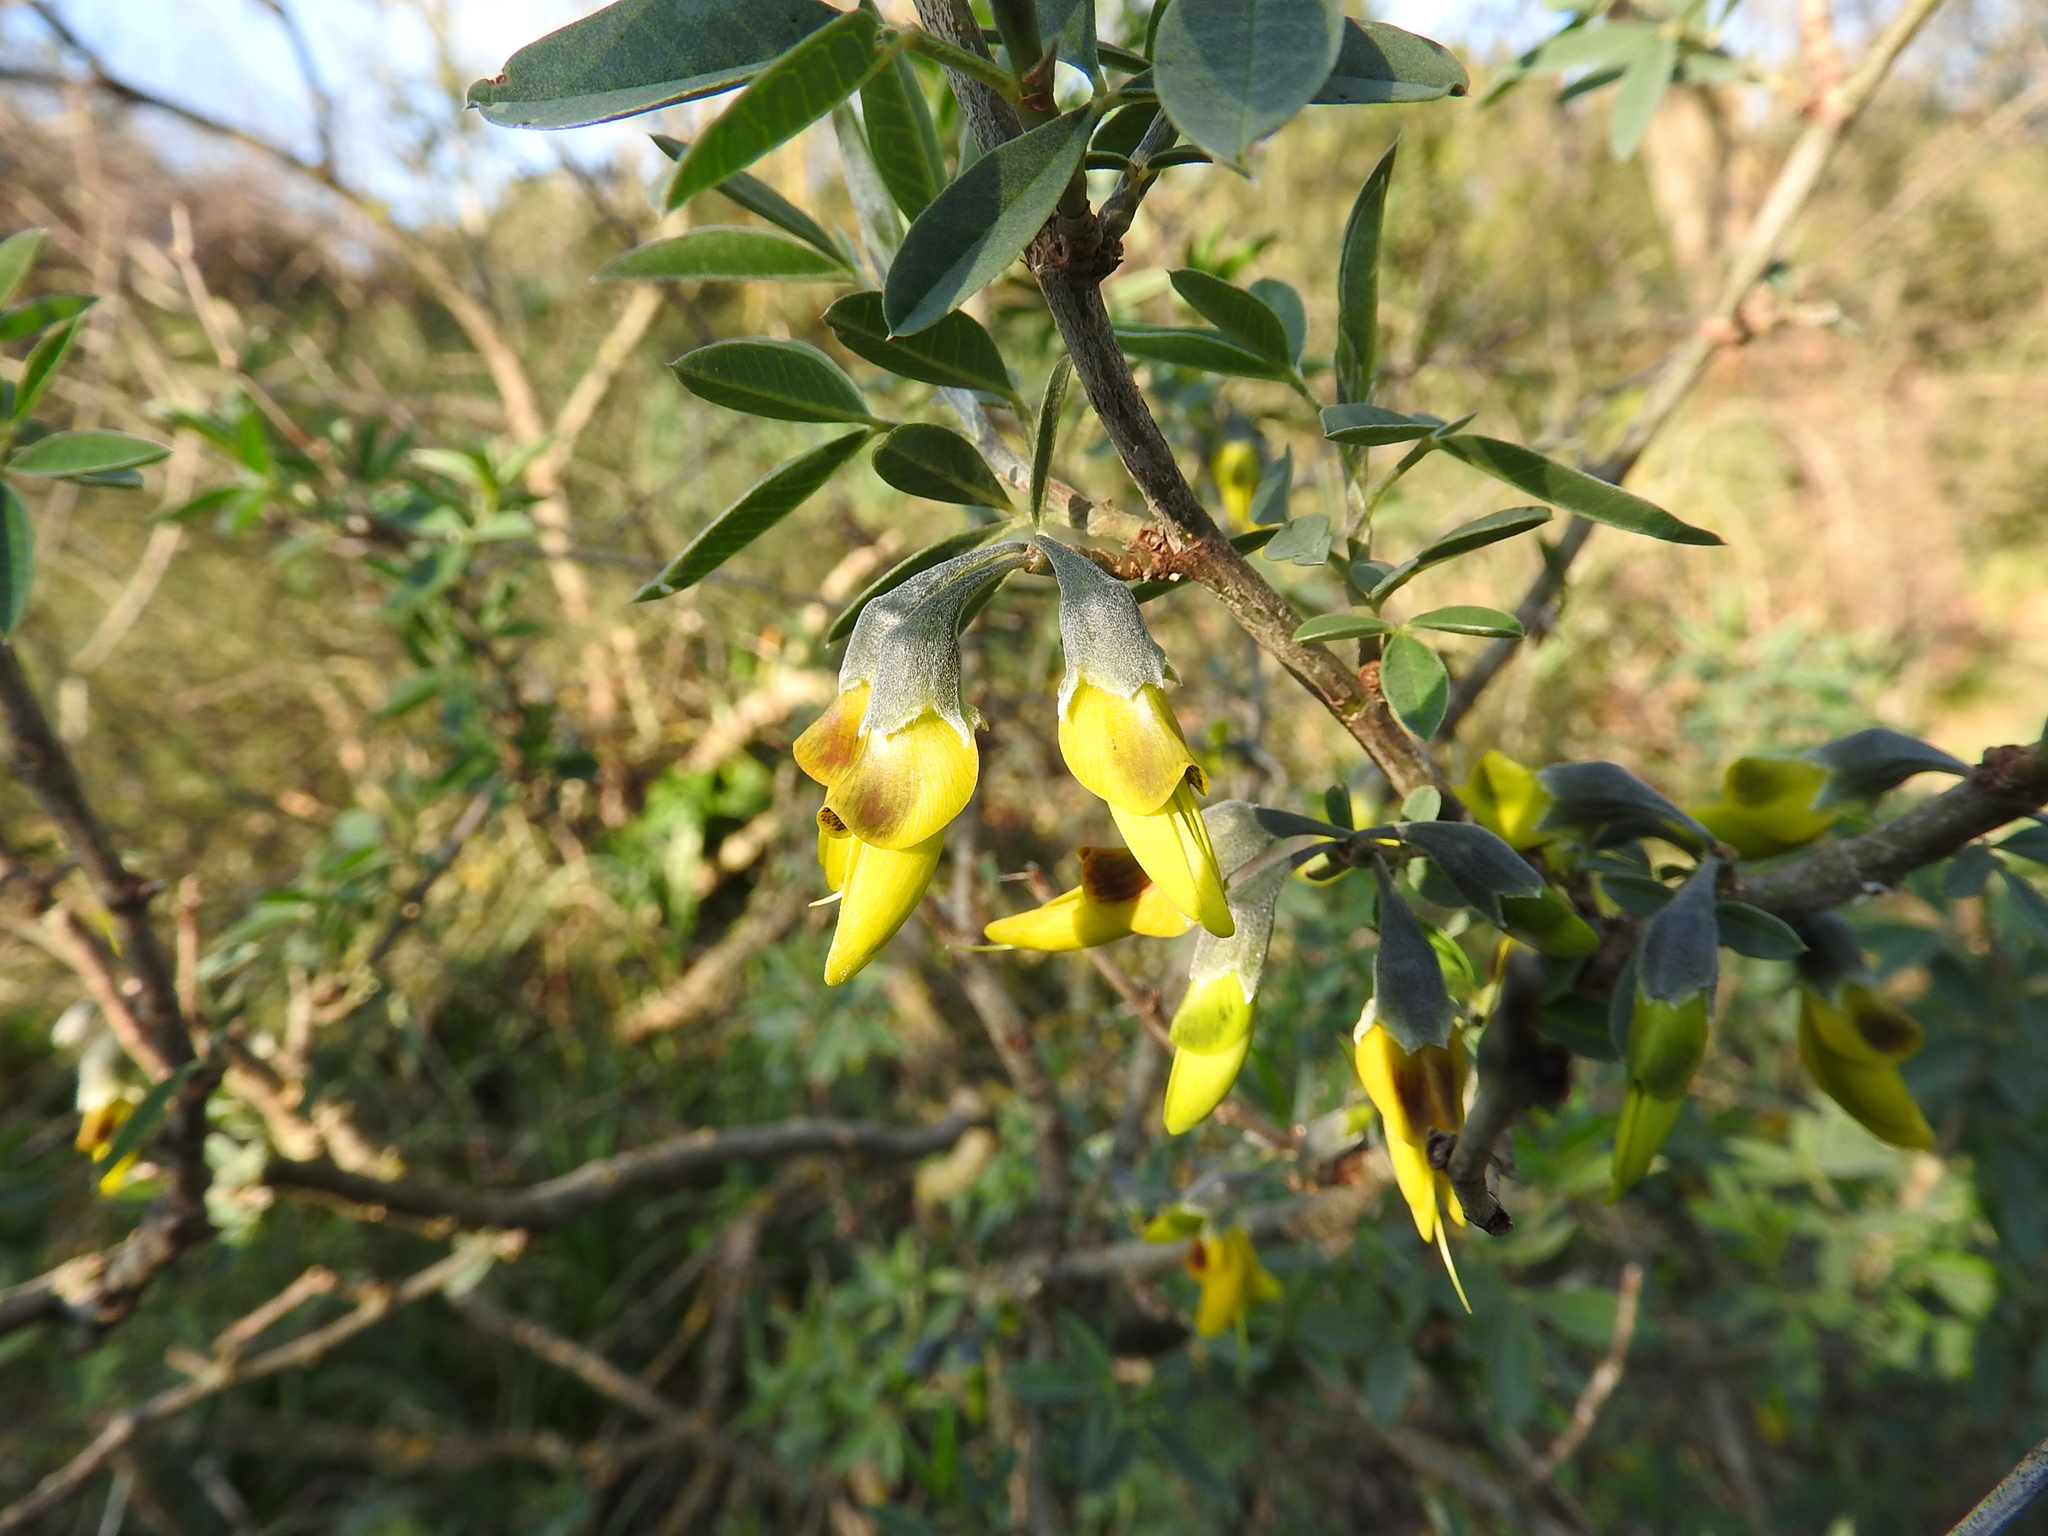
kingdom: Plantae
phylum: Tracheophyta
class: Magnoliopsida
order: Fabales
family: Fabaceae
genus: Anagyris
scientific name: Anagyris foetida
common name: Stinking bean trefoil
